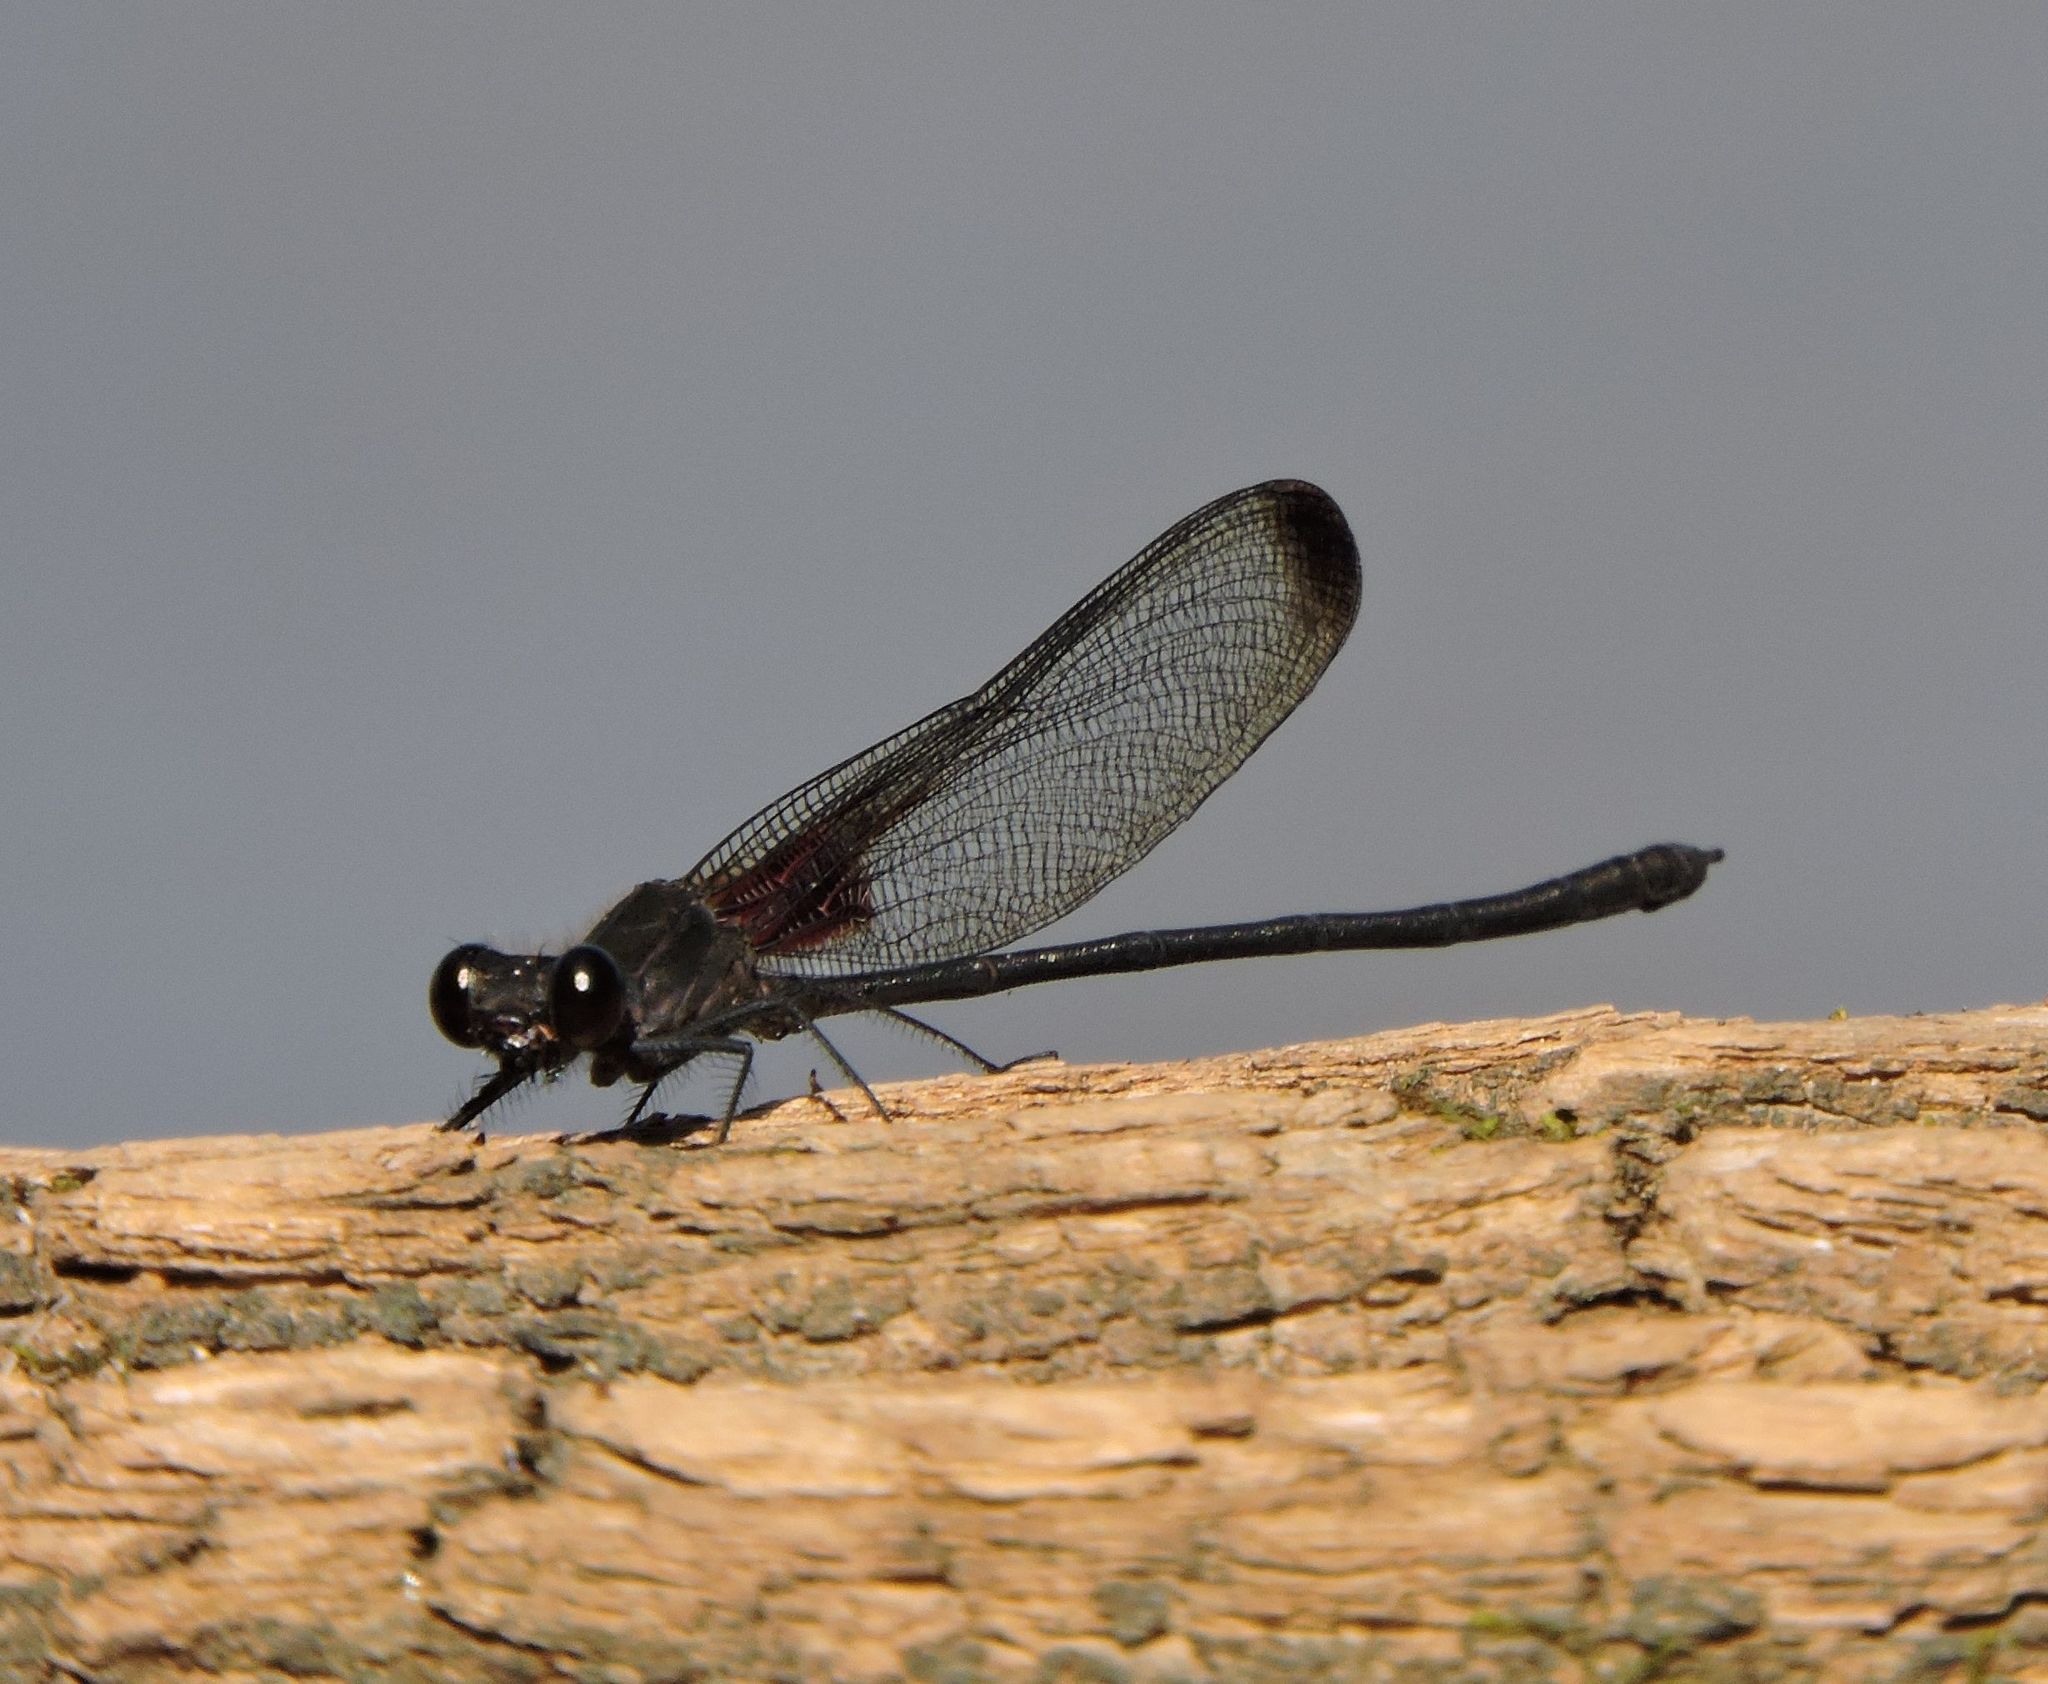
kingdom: Animalia
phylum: Arthropoda
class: Insecta
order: Odonata
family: Calopterygidae
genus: Hetaerina
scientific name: Hetaerina titia
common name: Smoky rubyspot
